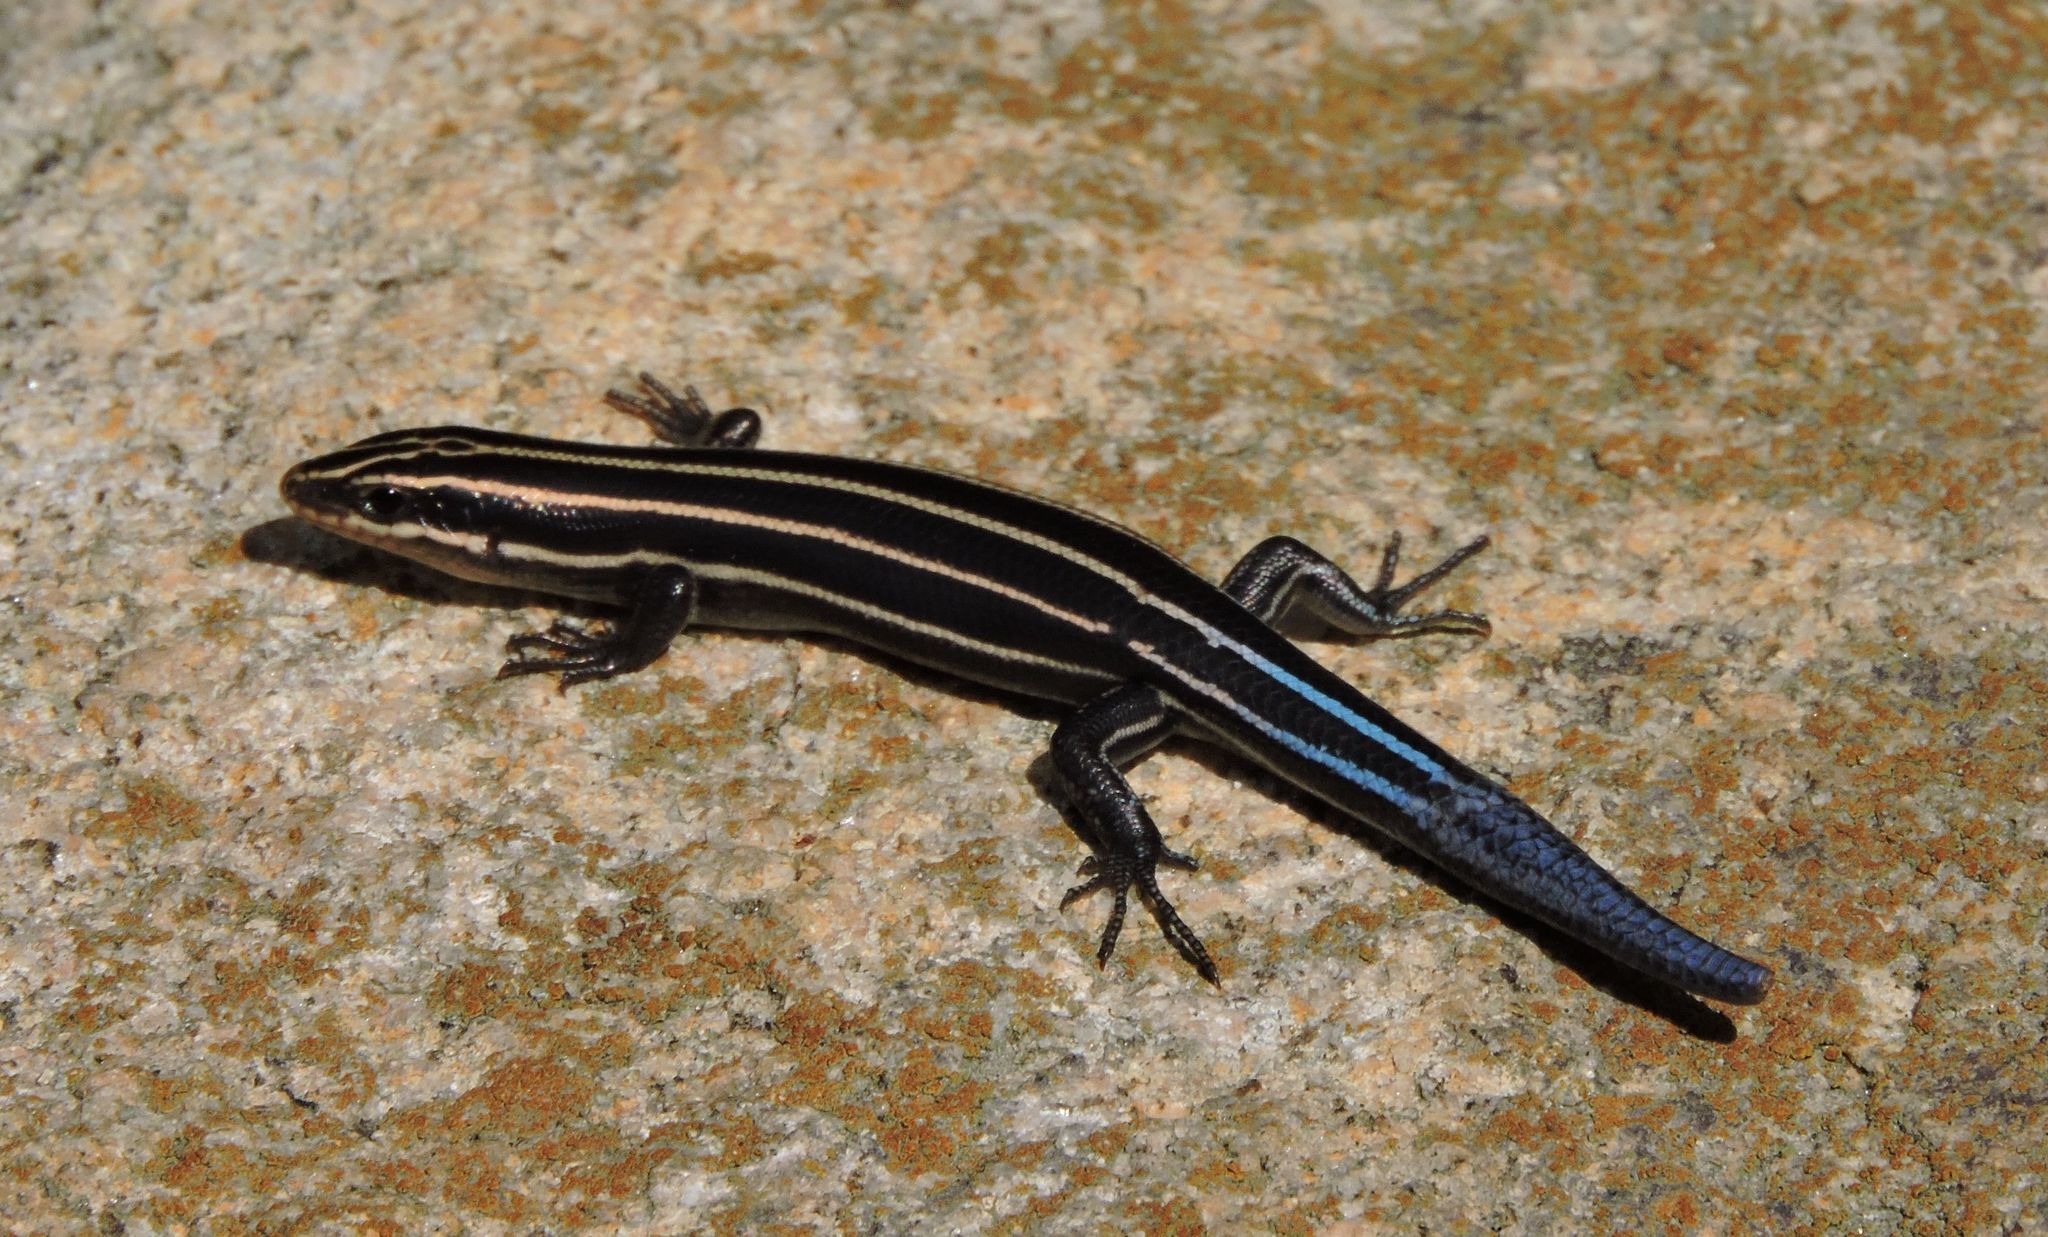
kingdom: Animalia
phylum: Chordata
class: Squamata
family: Scincidae
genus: Plestiodon
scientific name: Plestiodon fasciatus
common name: Five-lined skink
